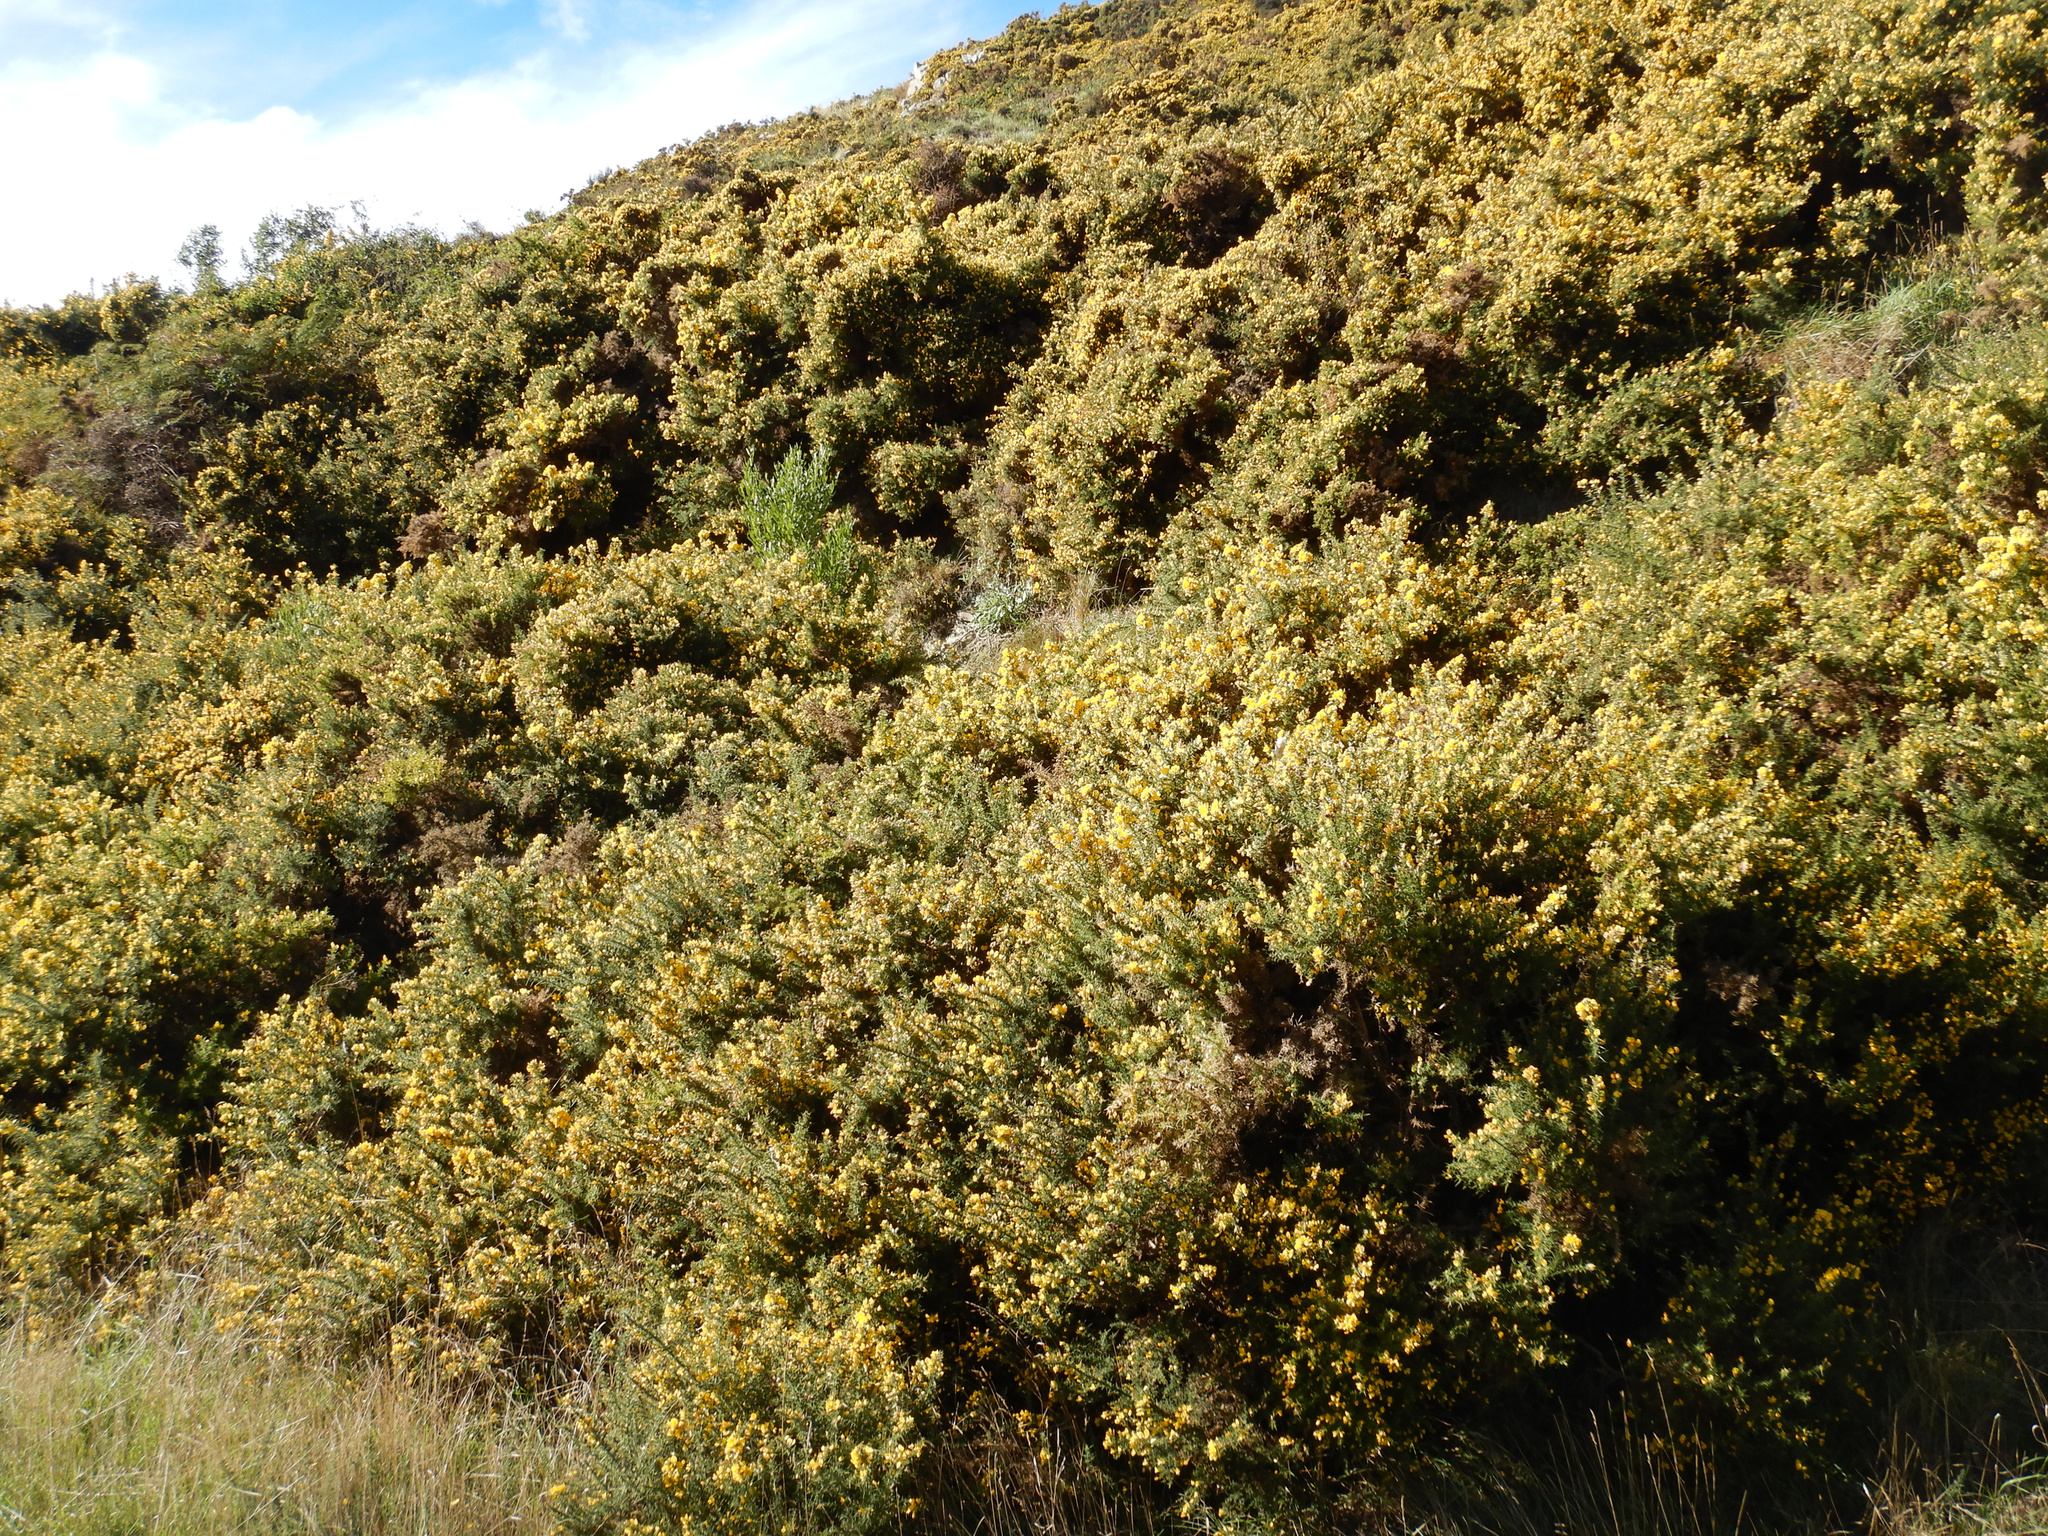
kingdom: Plantae
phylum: Tracheophyta
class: Magnoliopsida
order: Fabales
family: Fabaceae
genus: Ulex
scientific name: Ulex europaeus
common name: Common gorse
